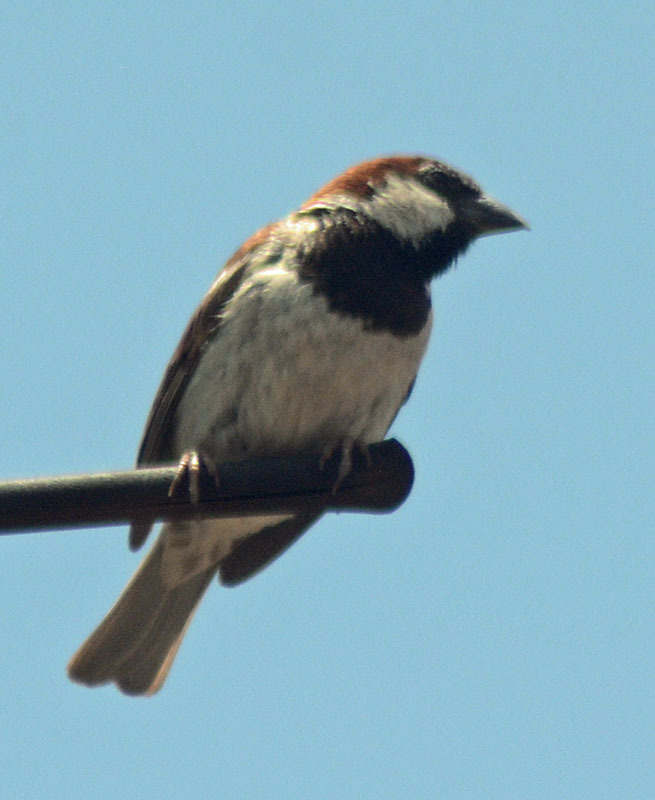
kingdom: Animalia
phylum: Chordata
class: Aves
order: Passeriformes
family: Passeridae
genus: Passer
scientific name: Passer domesticus
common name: House sparrow
